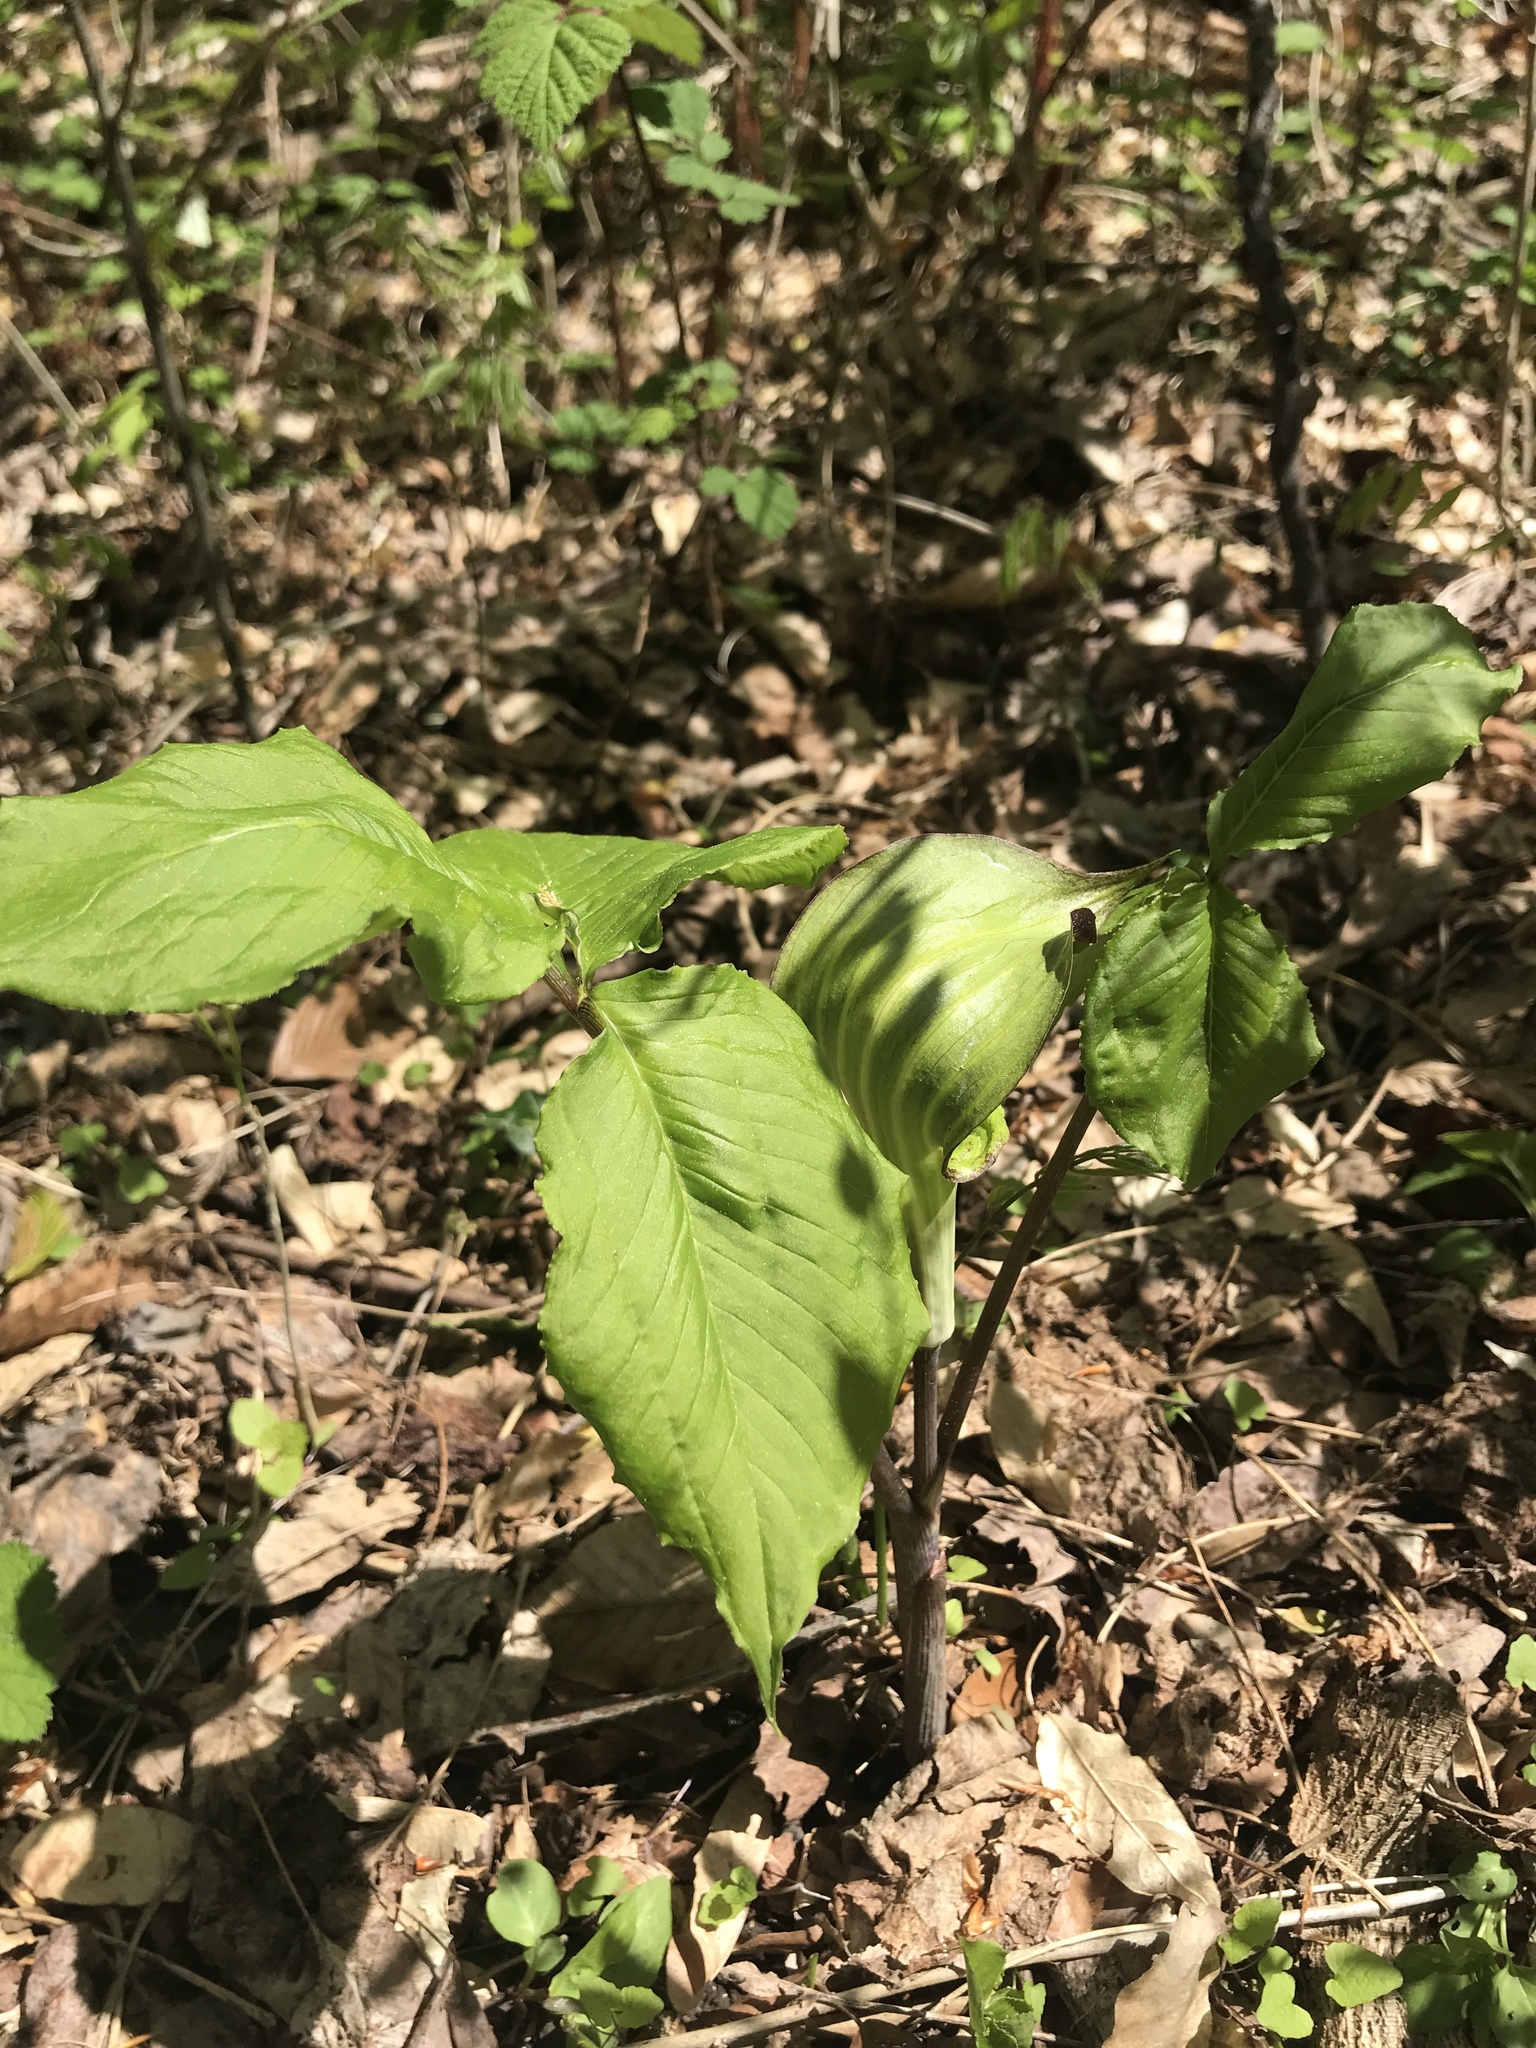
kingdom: Plantae
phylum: Tracheophyta
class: Liliopsida
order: Alismatales
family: Araceae
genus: Arisaema
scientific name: Arisaema triphyllum
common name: Jack-in-the-pulpit
